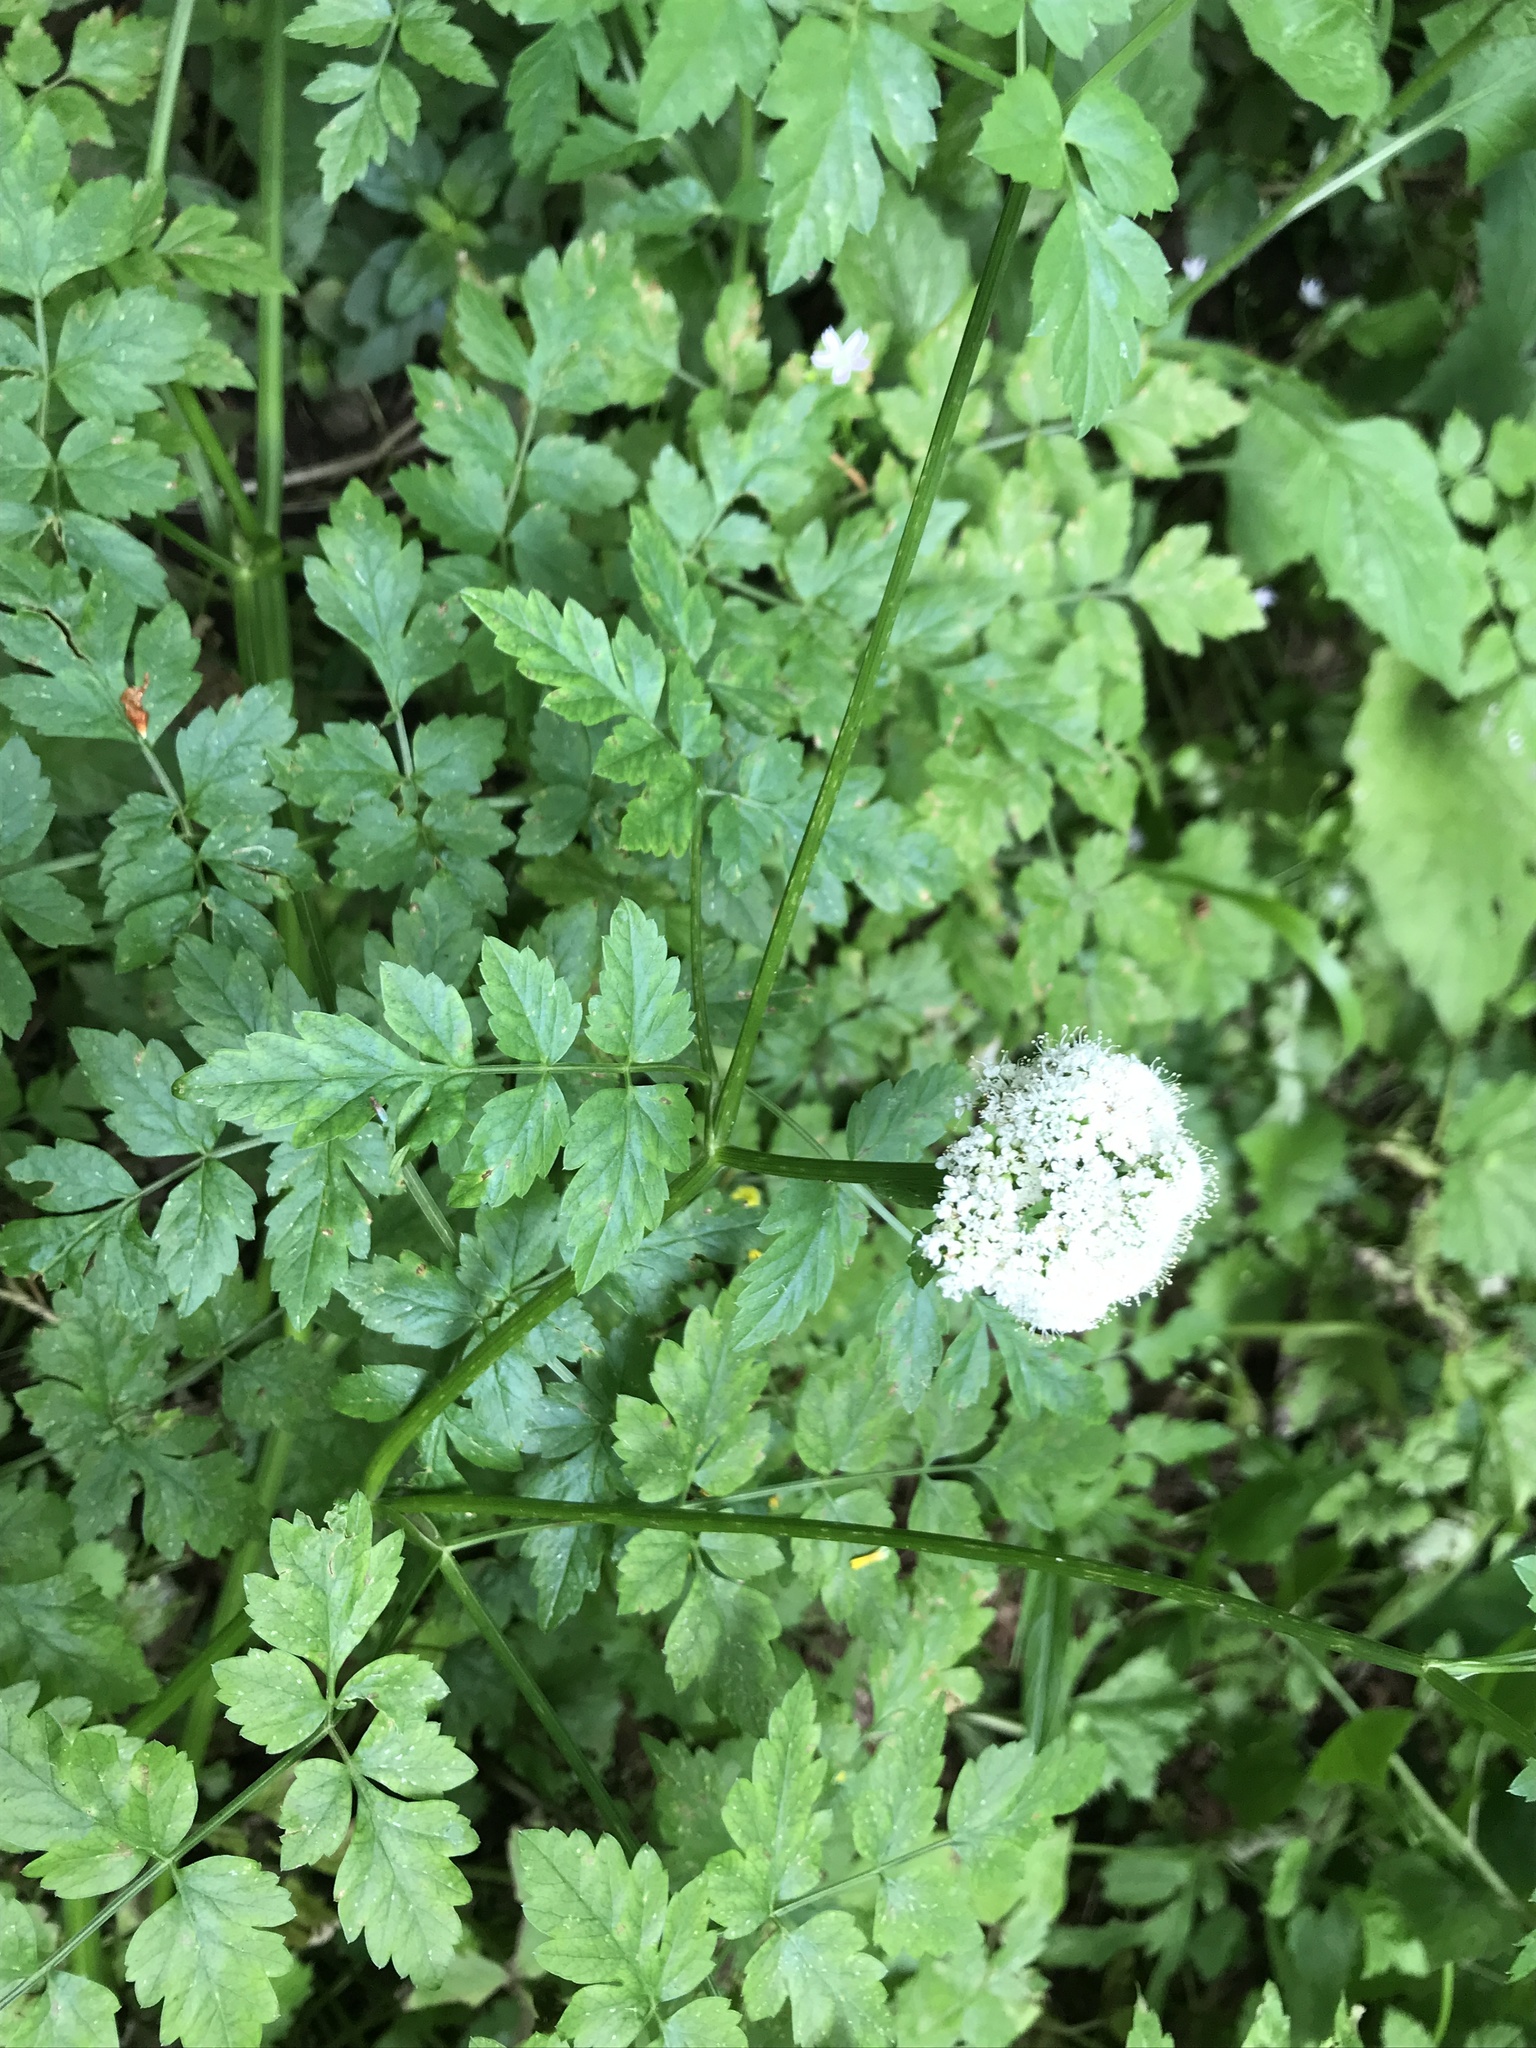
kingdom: Plantae
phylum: Tracheophyta
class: Magnoliopsida
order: Apiales
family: Apiaceae
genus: Oenanthe
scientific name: Oenanthe sarmentosa
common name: American water-parsley
